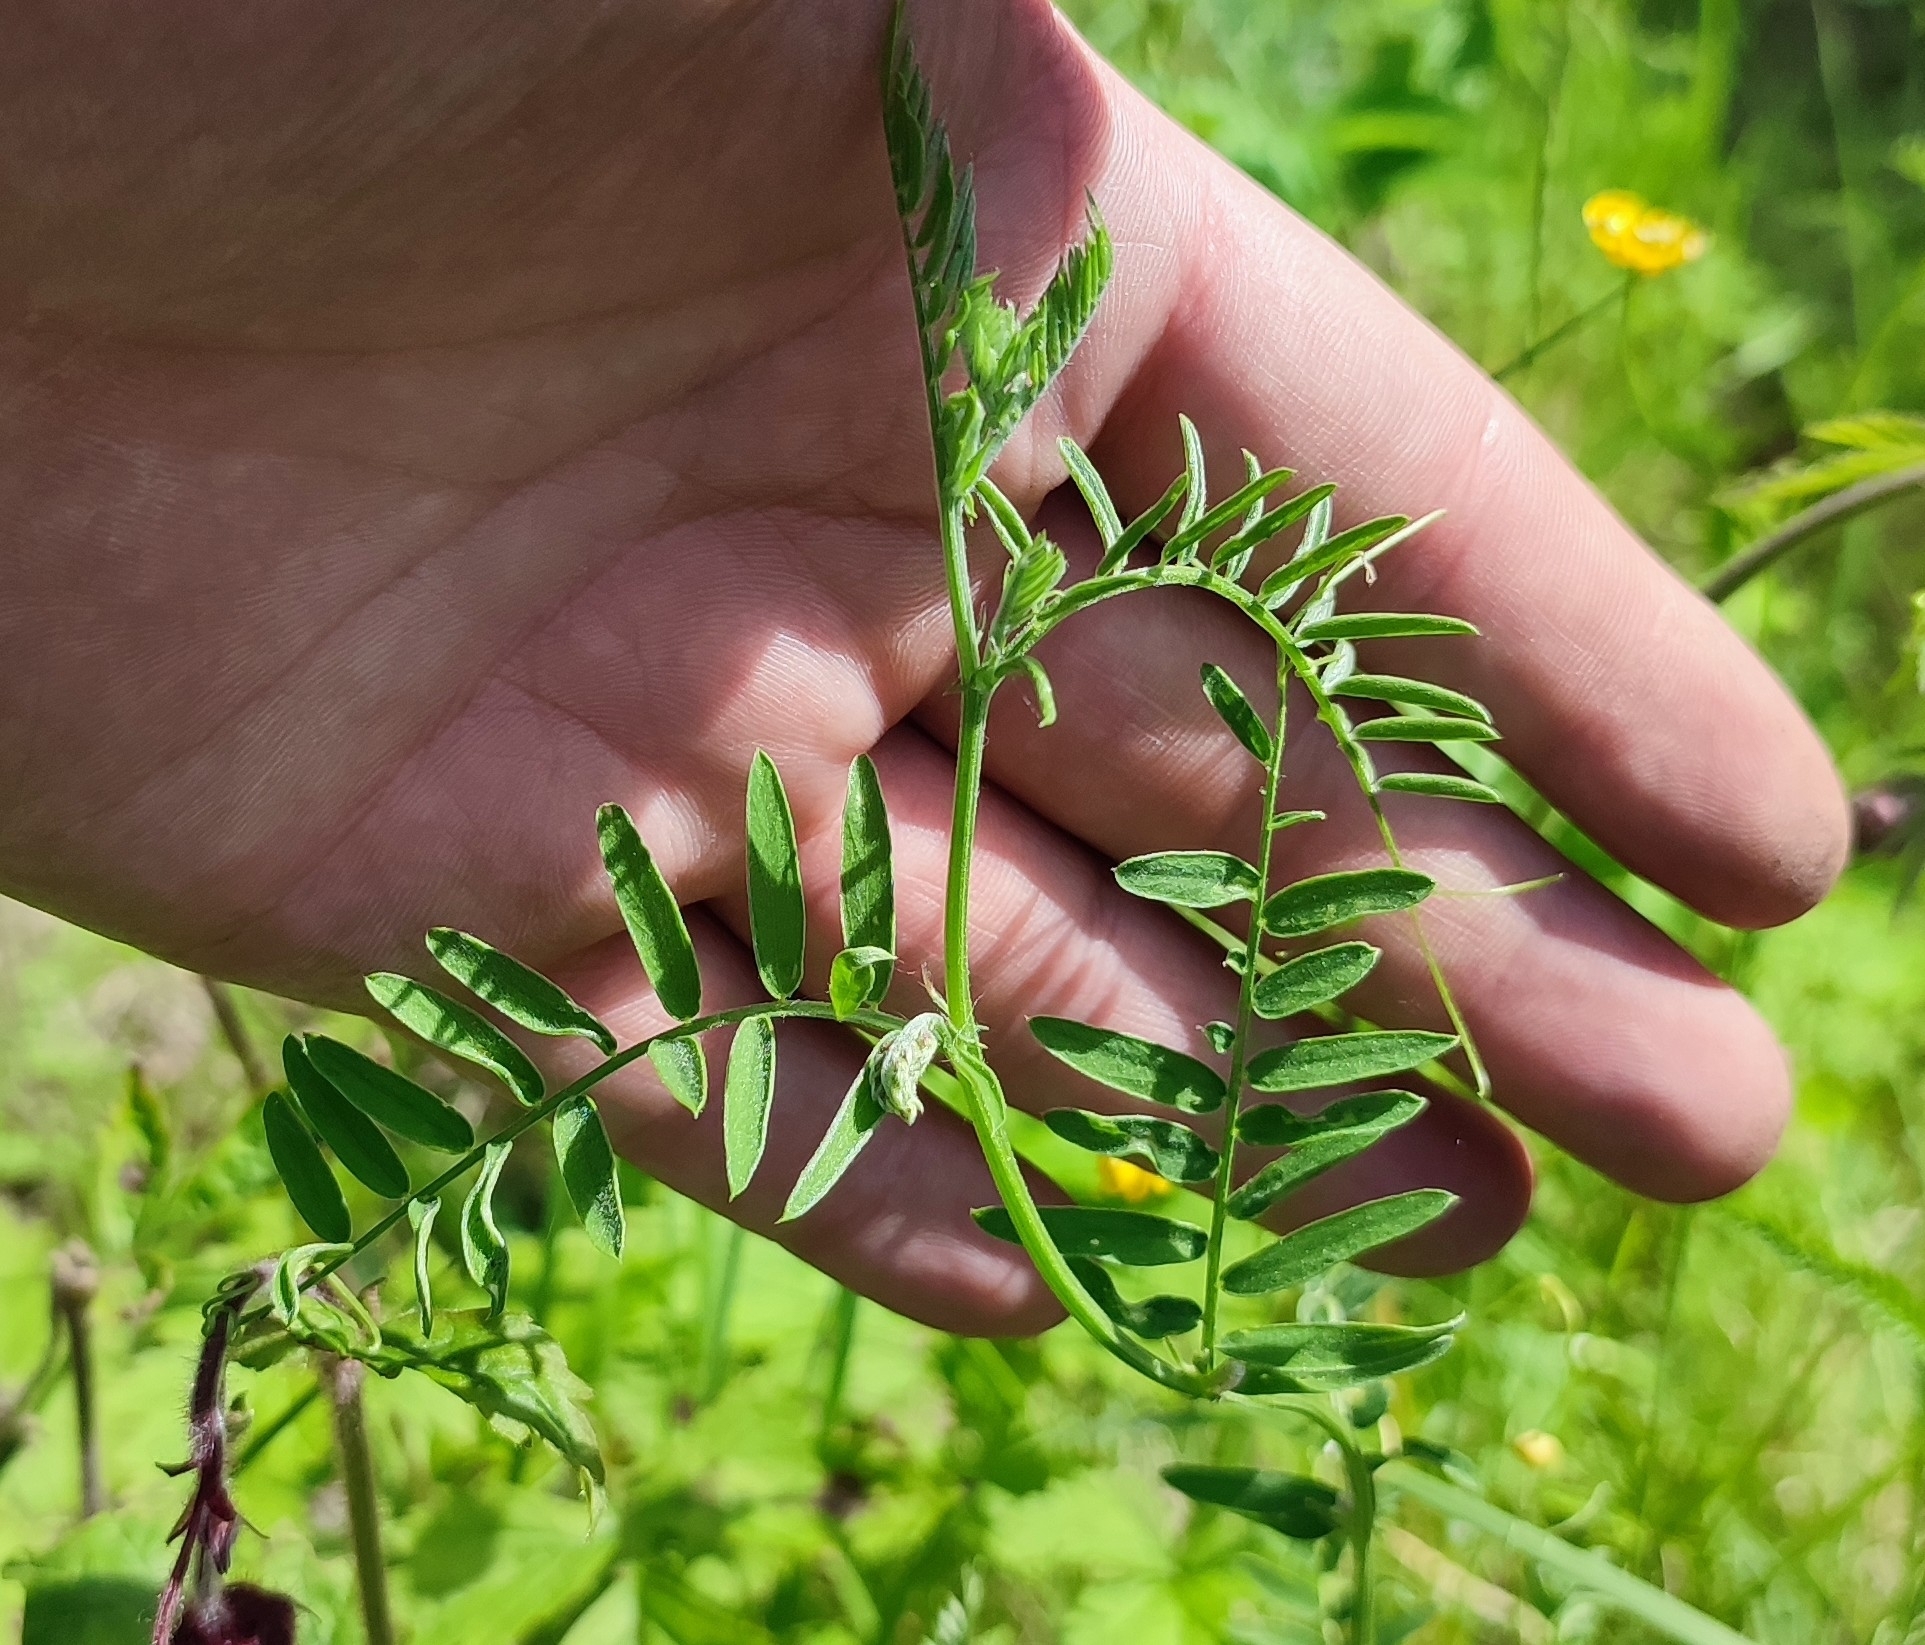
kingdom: Plantae
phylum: Tracheophyta
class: Magnoliopsida
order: Fabales
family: Fabaceae
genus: Vicia
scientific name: Vicia cracca
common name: Bird vetch
